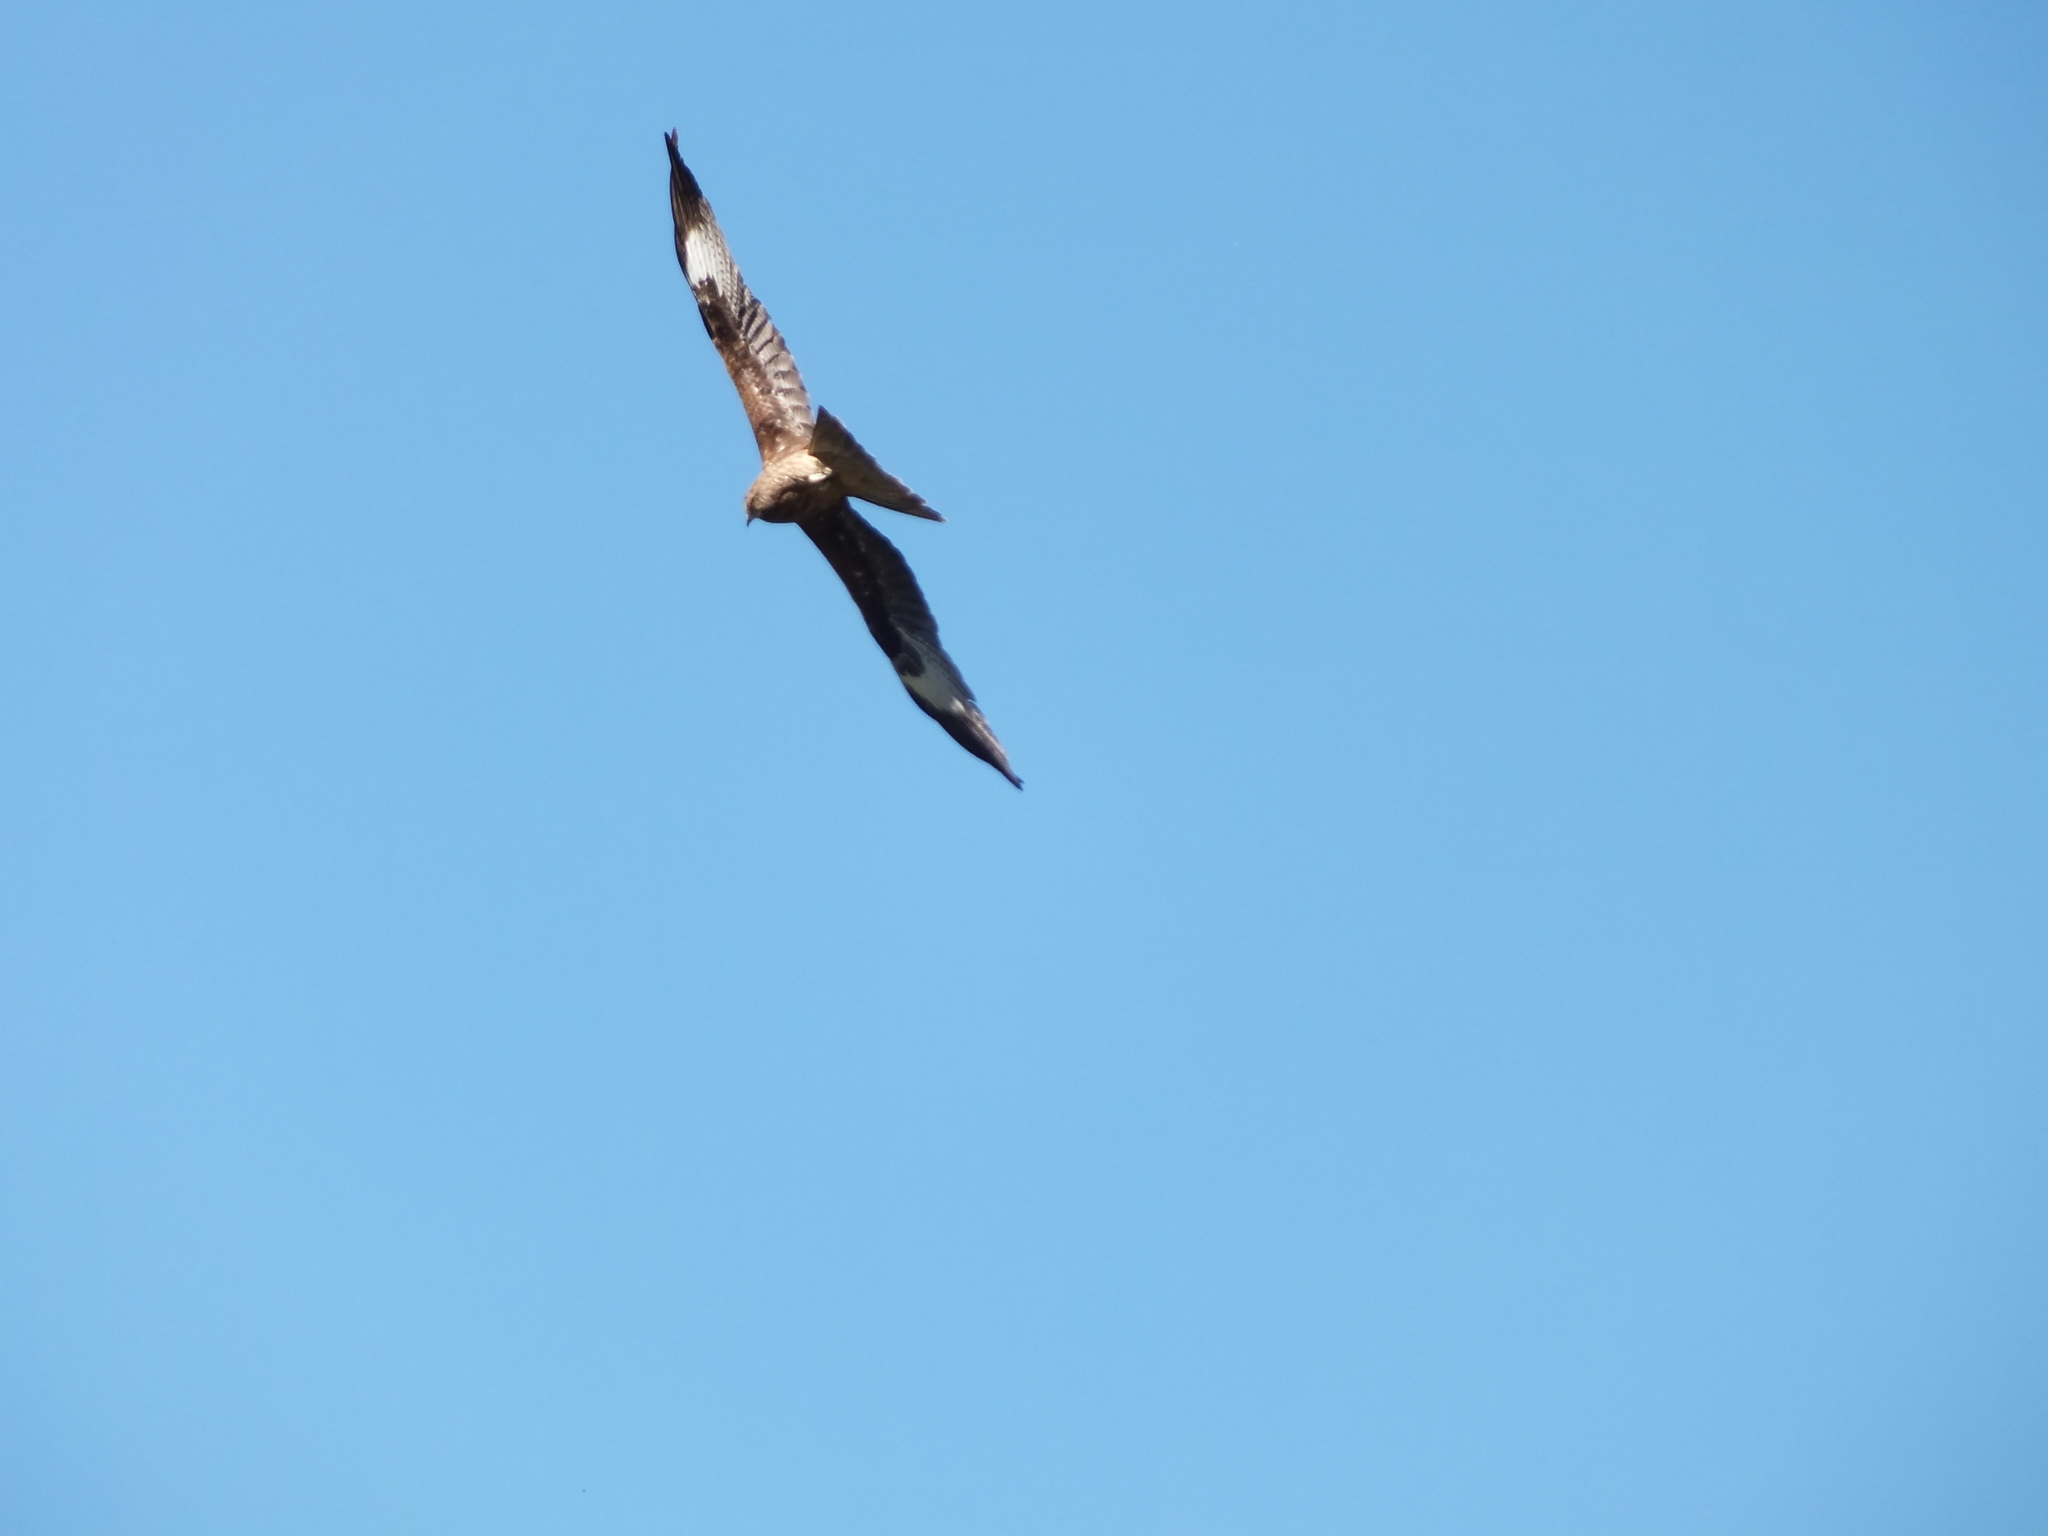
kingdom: Animalia
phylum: Chordata
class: Aves
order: Accipitriformes
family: Accipitridae
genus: Milvus
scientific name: Milvus migrans
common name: Black kite
